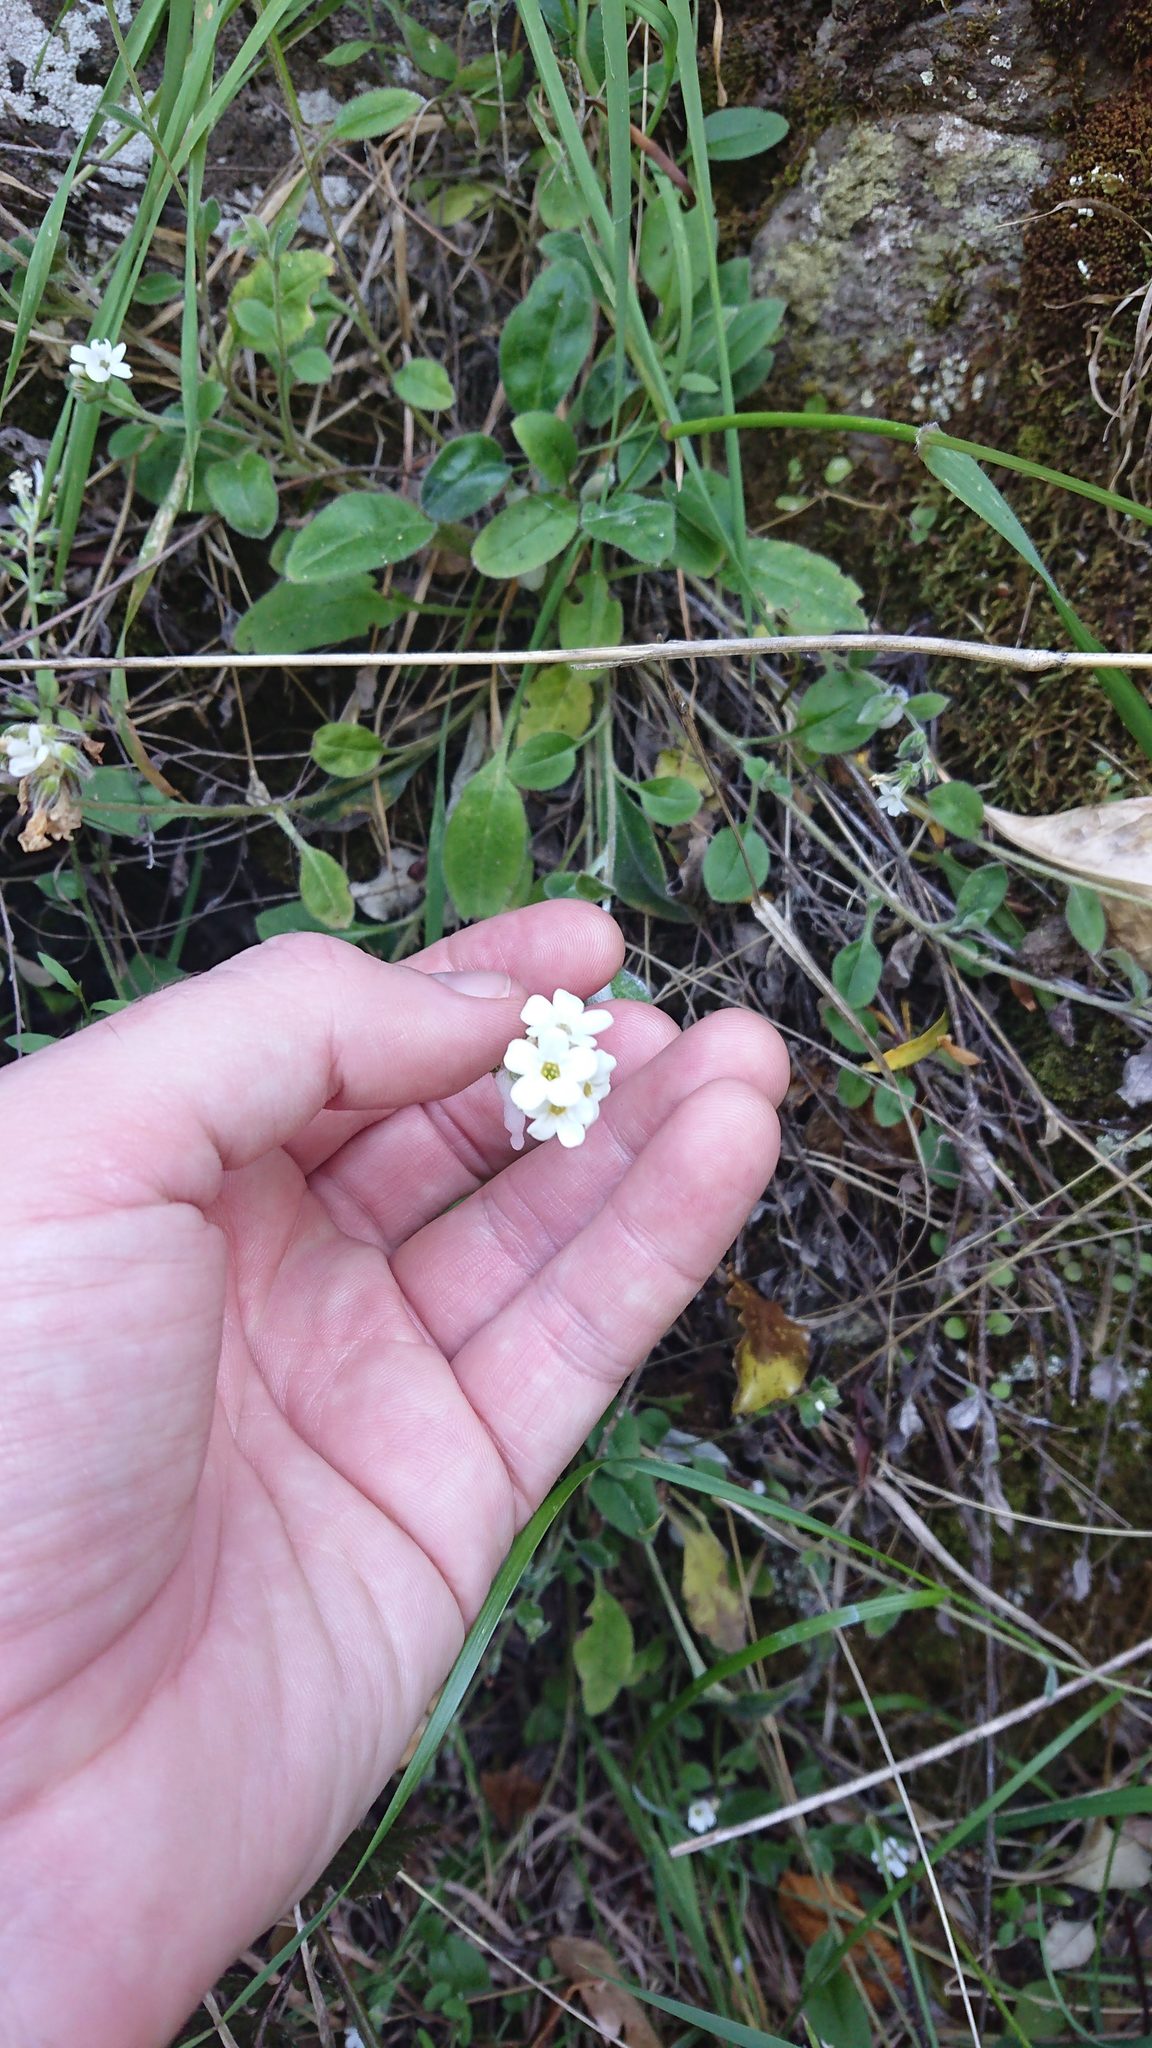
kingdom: Plantae
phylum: Tracheophyta
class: Magnoliopsida
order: Boraginales
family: Boraginaceae
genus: Myosotis
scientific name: Myosotis australis
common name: Australian forget-me-not
